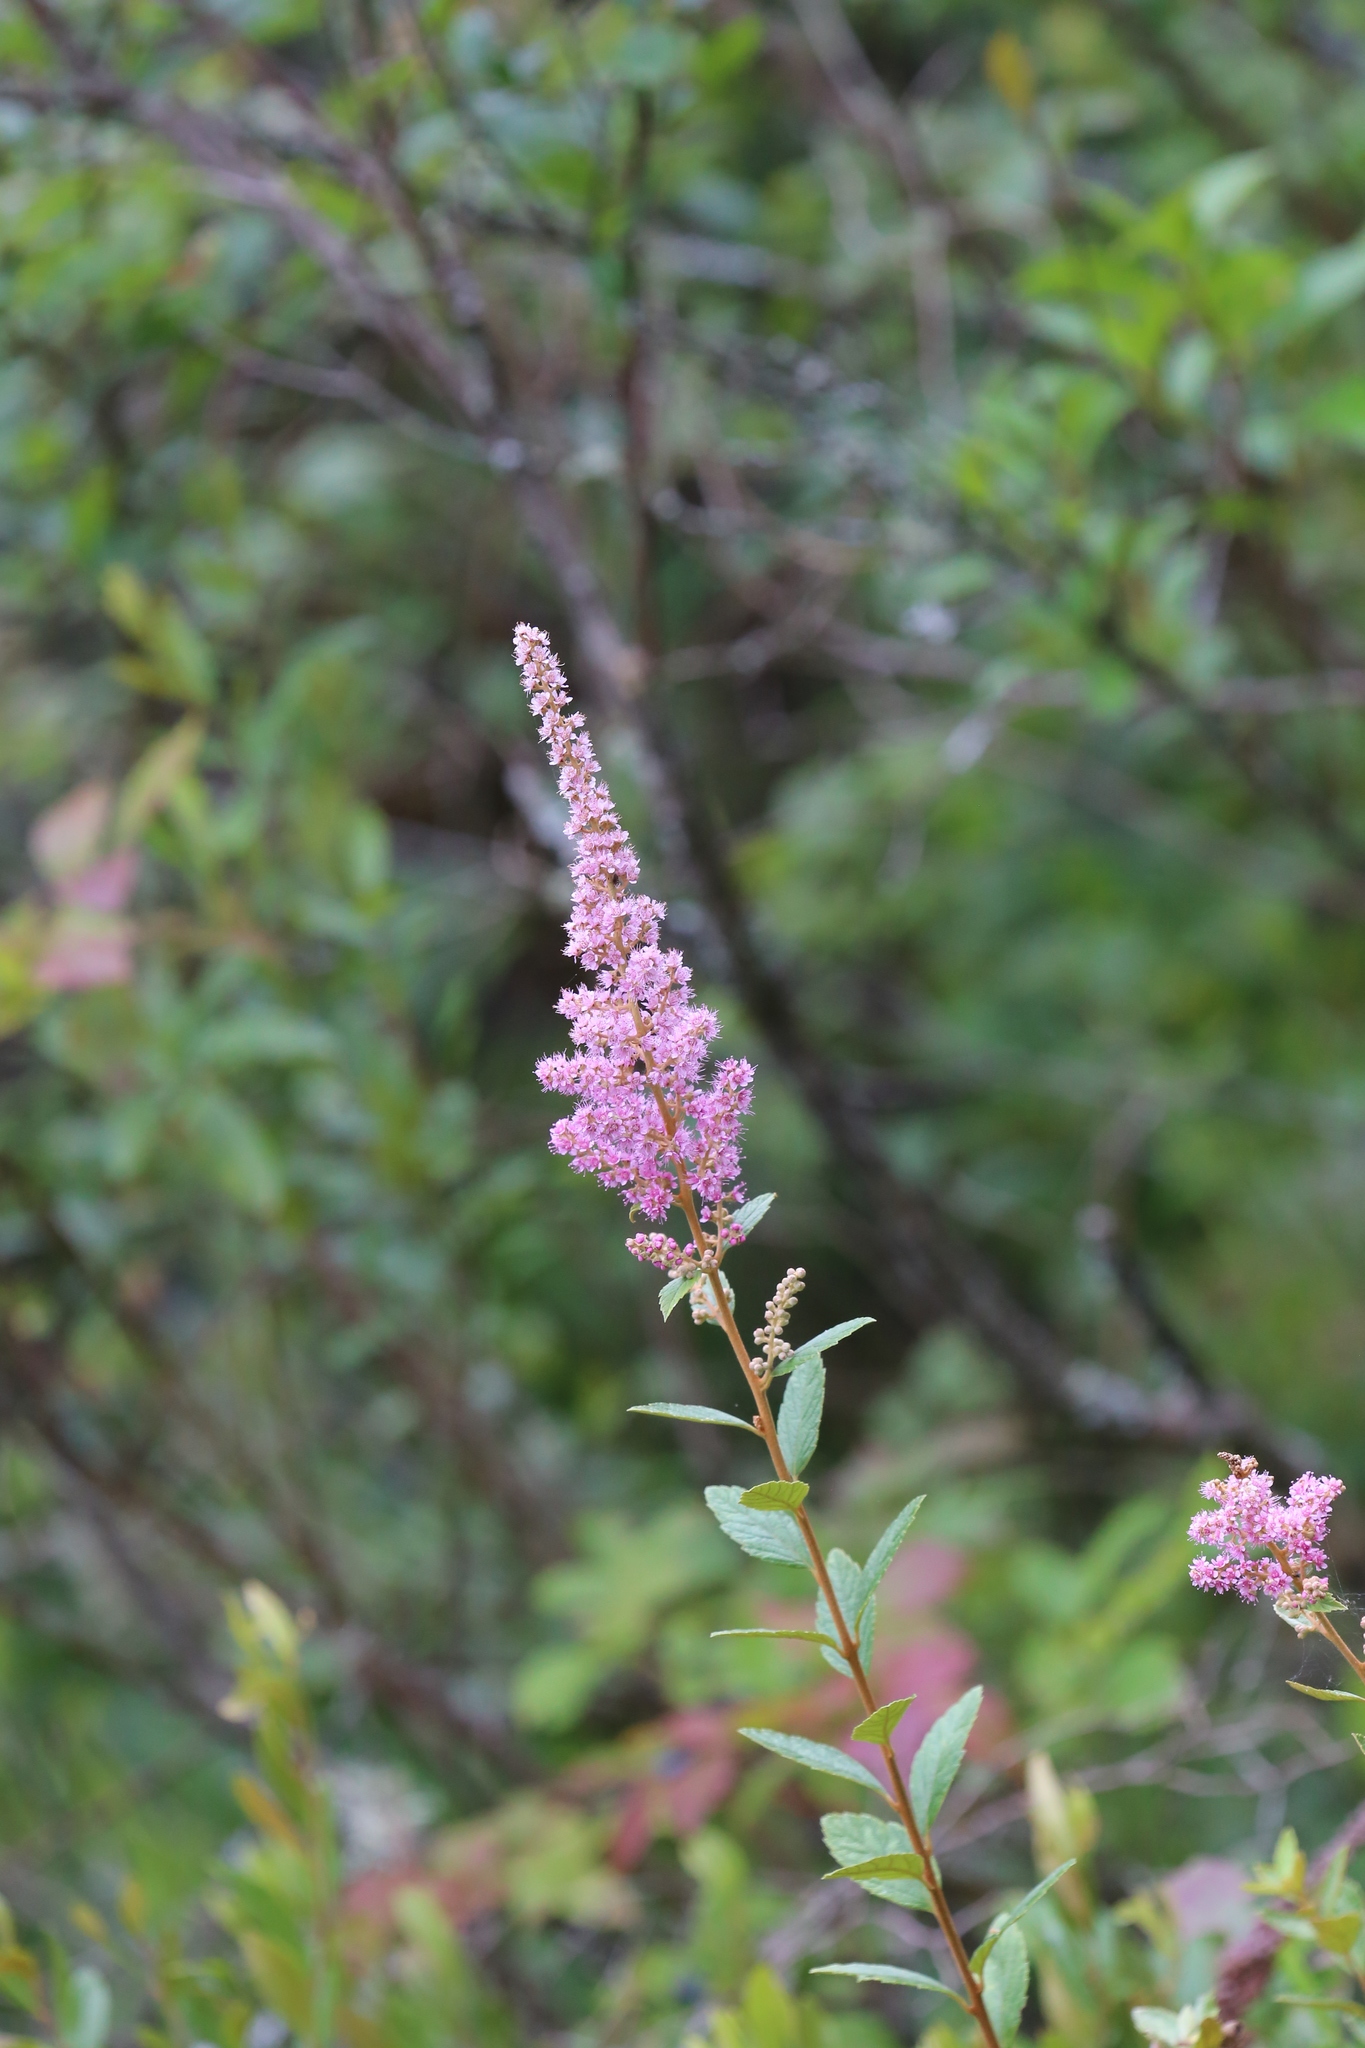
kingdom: Plantae
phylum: Tracheophyta
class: Magnoliopsida
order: Rosales
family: Rosaceae
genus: Spiraea
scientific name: Spiraea tomentosa
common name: Hardhack
